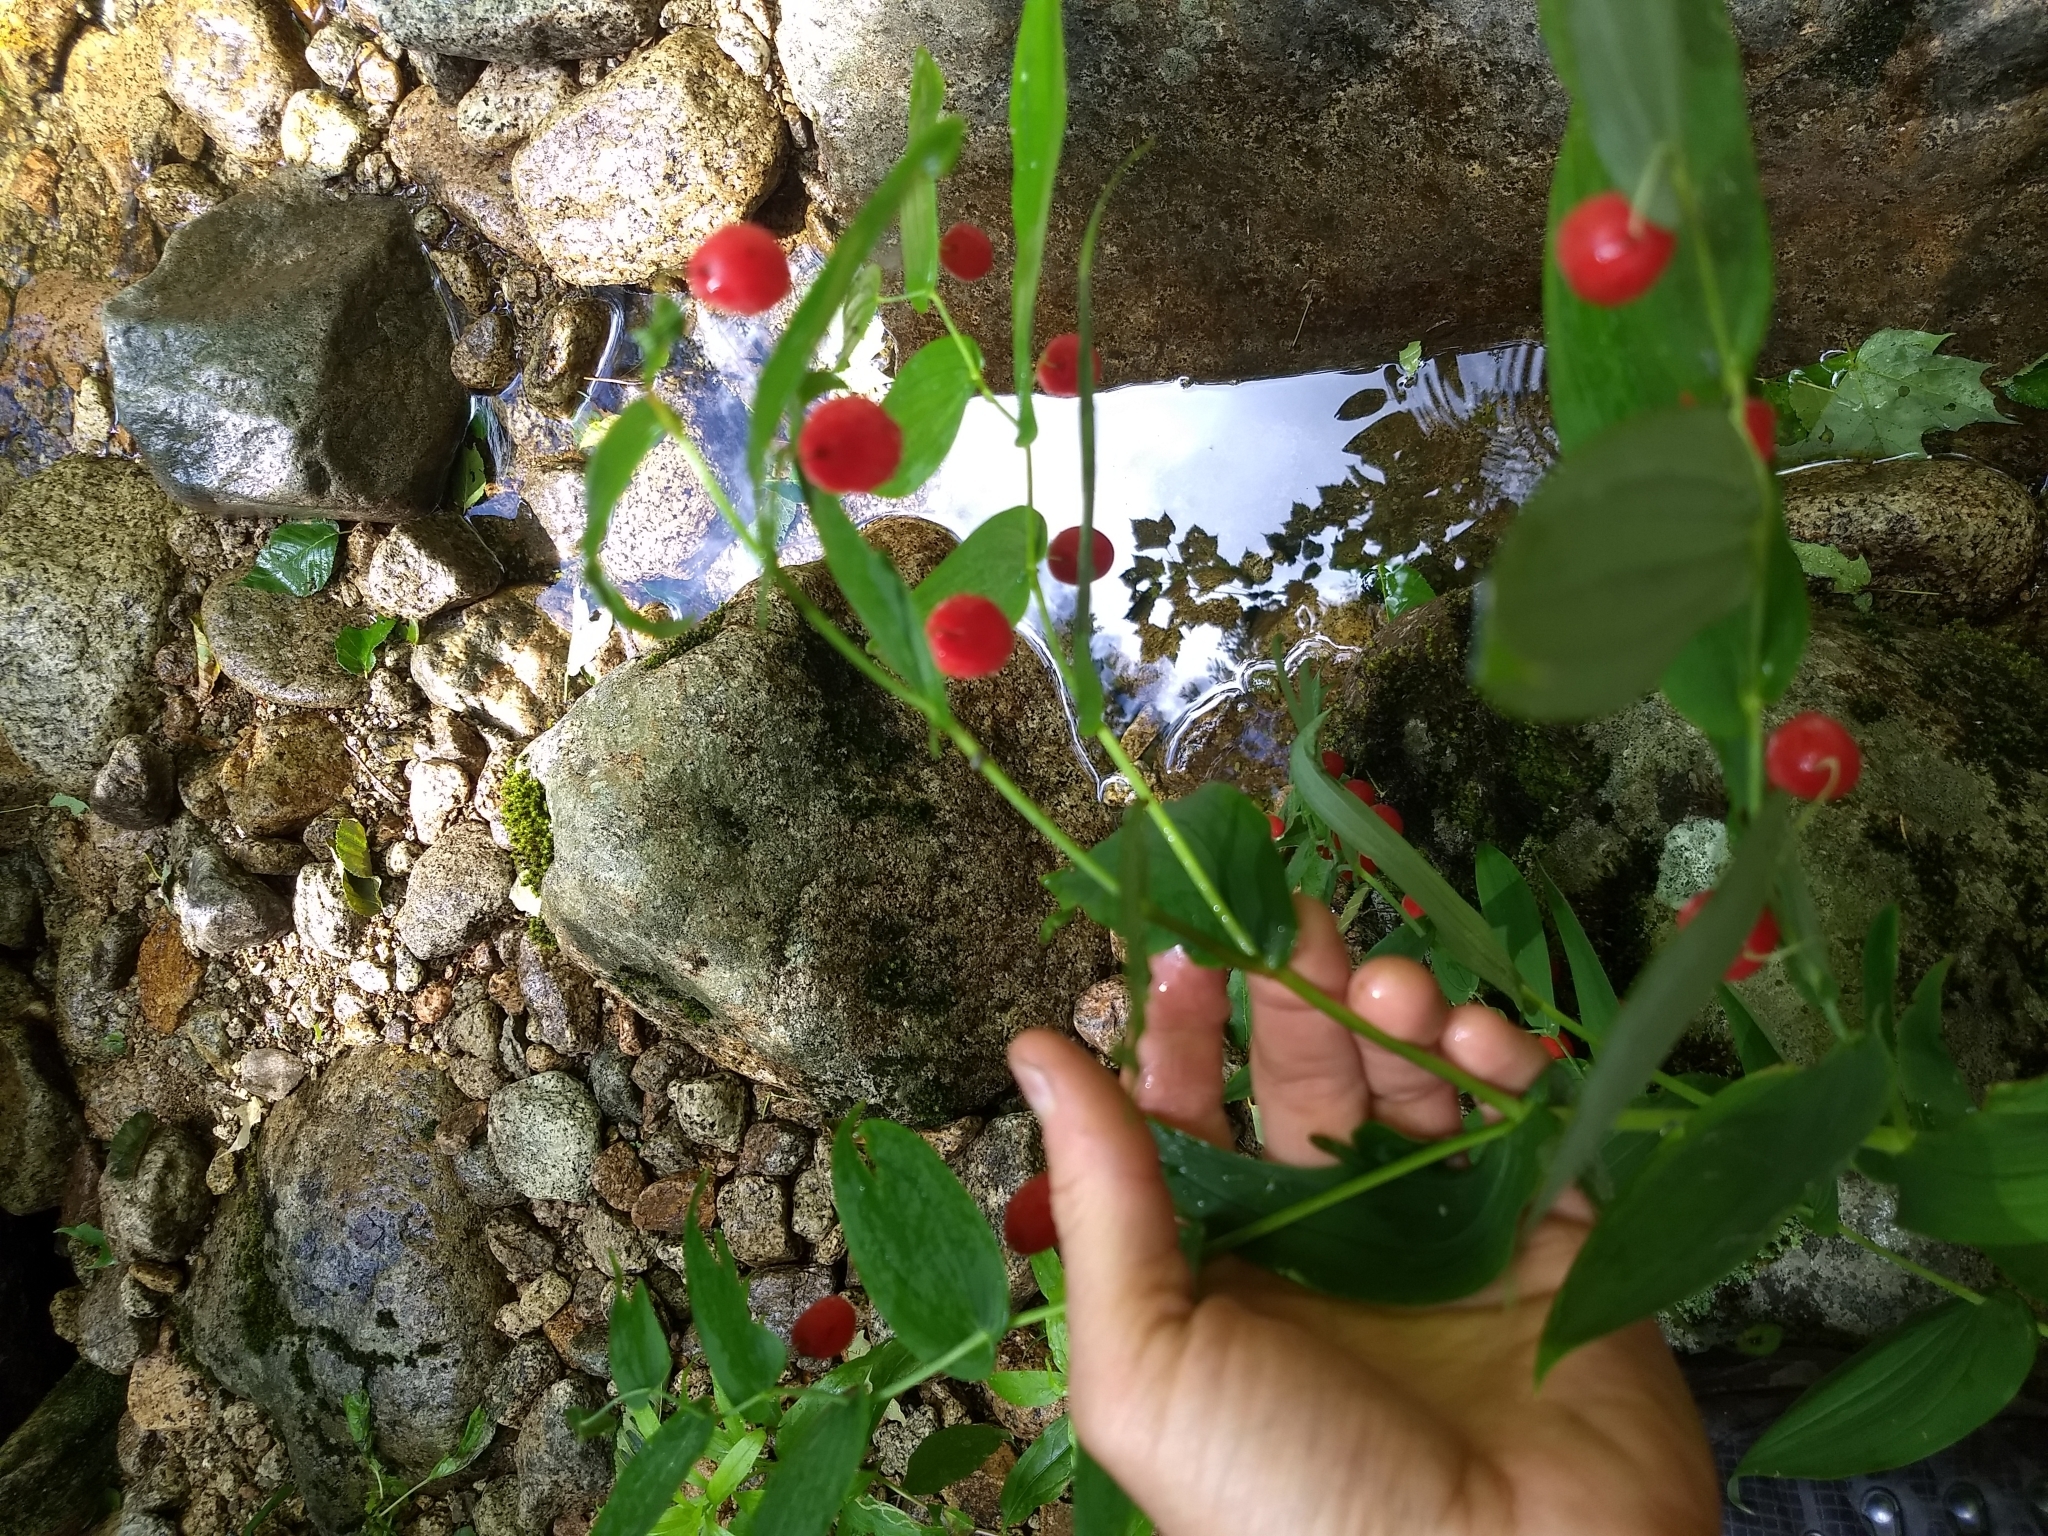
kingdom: Plantae
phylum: Tracheophyta
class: Liliopsida
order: Liliales
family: Liliaceae
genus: Streptopus
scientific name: Streptopus amplexifolius
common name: Clasp twisted stalk
